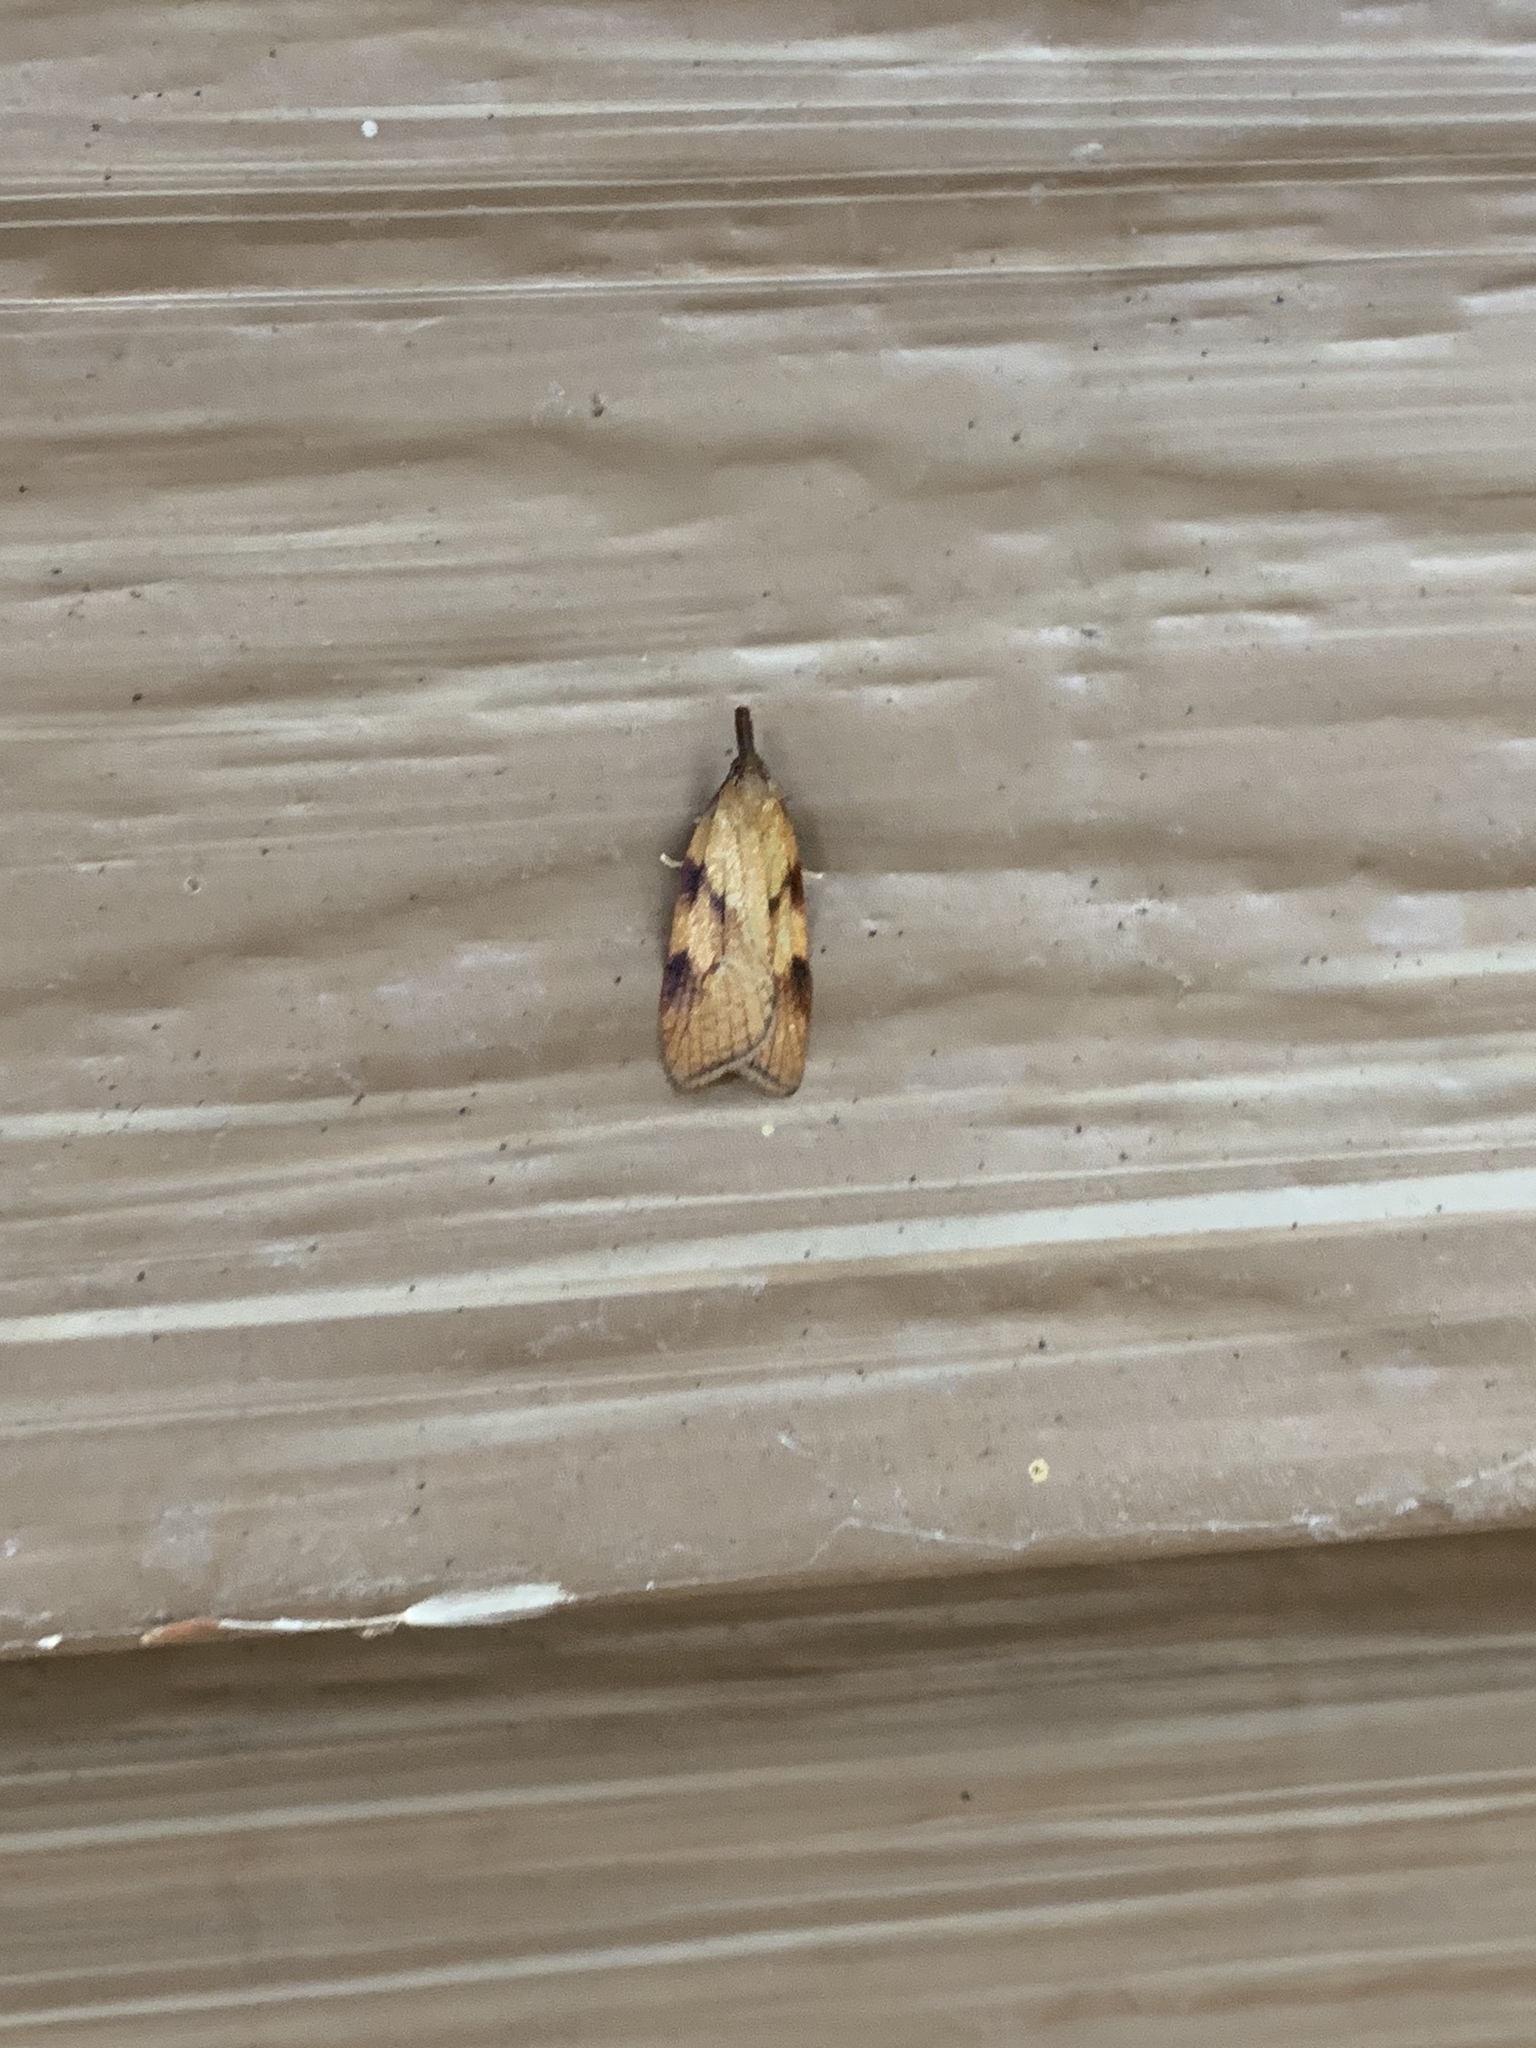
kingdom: Animalia
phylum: Arthropoda
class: Insecta
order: Lepidoptera
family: Tortricidae
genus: Sparganothis
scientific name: Sparganothis boweri
